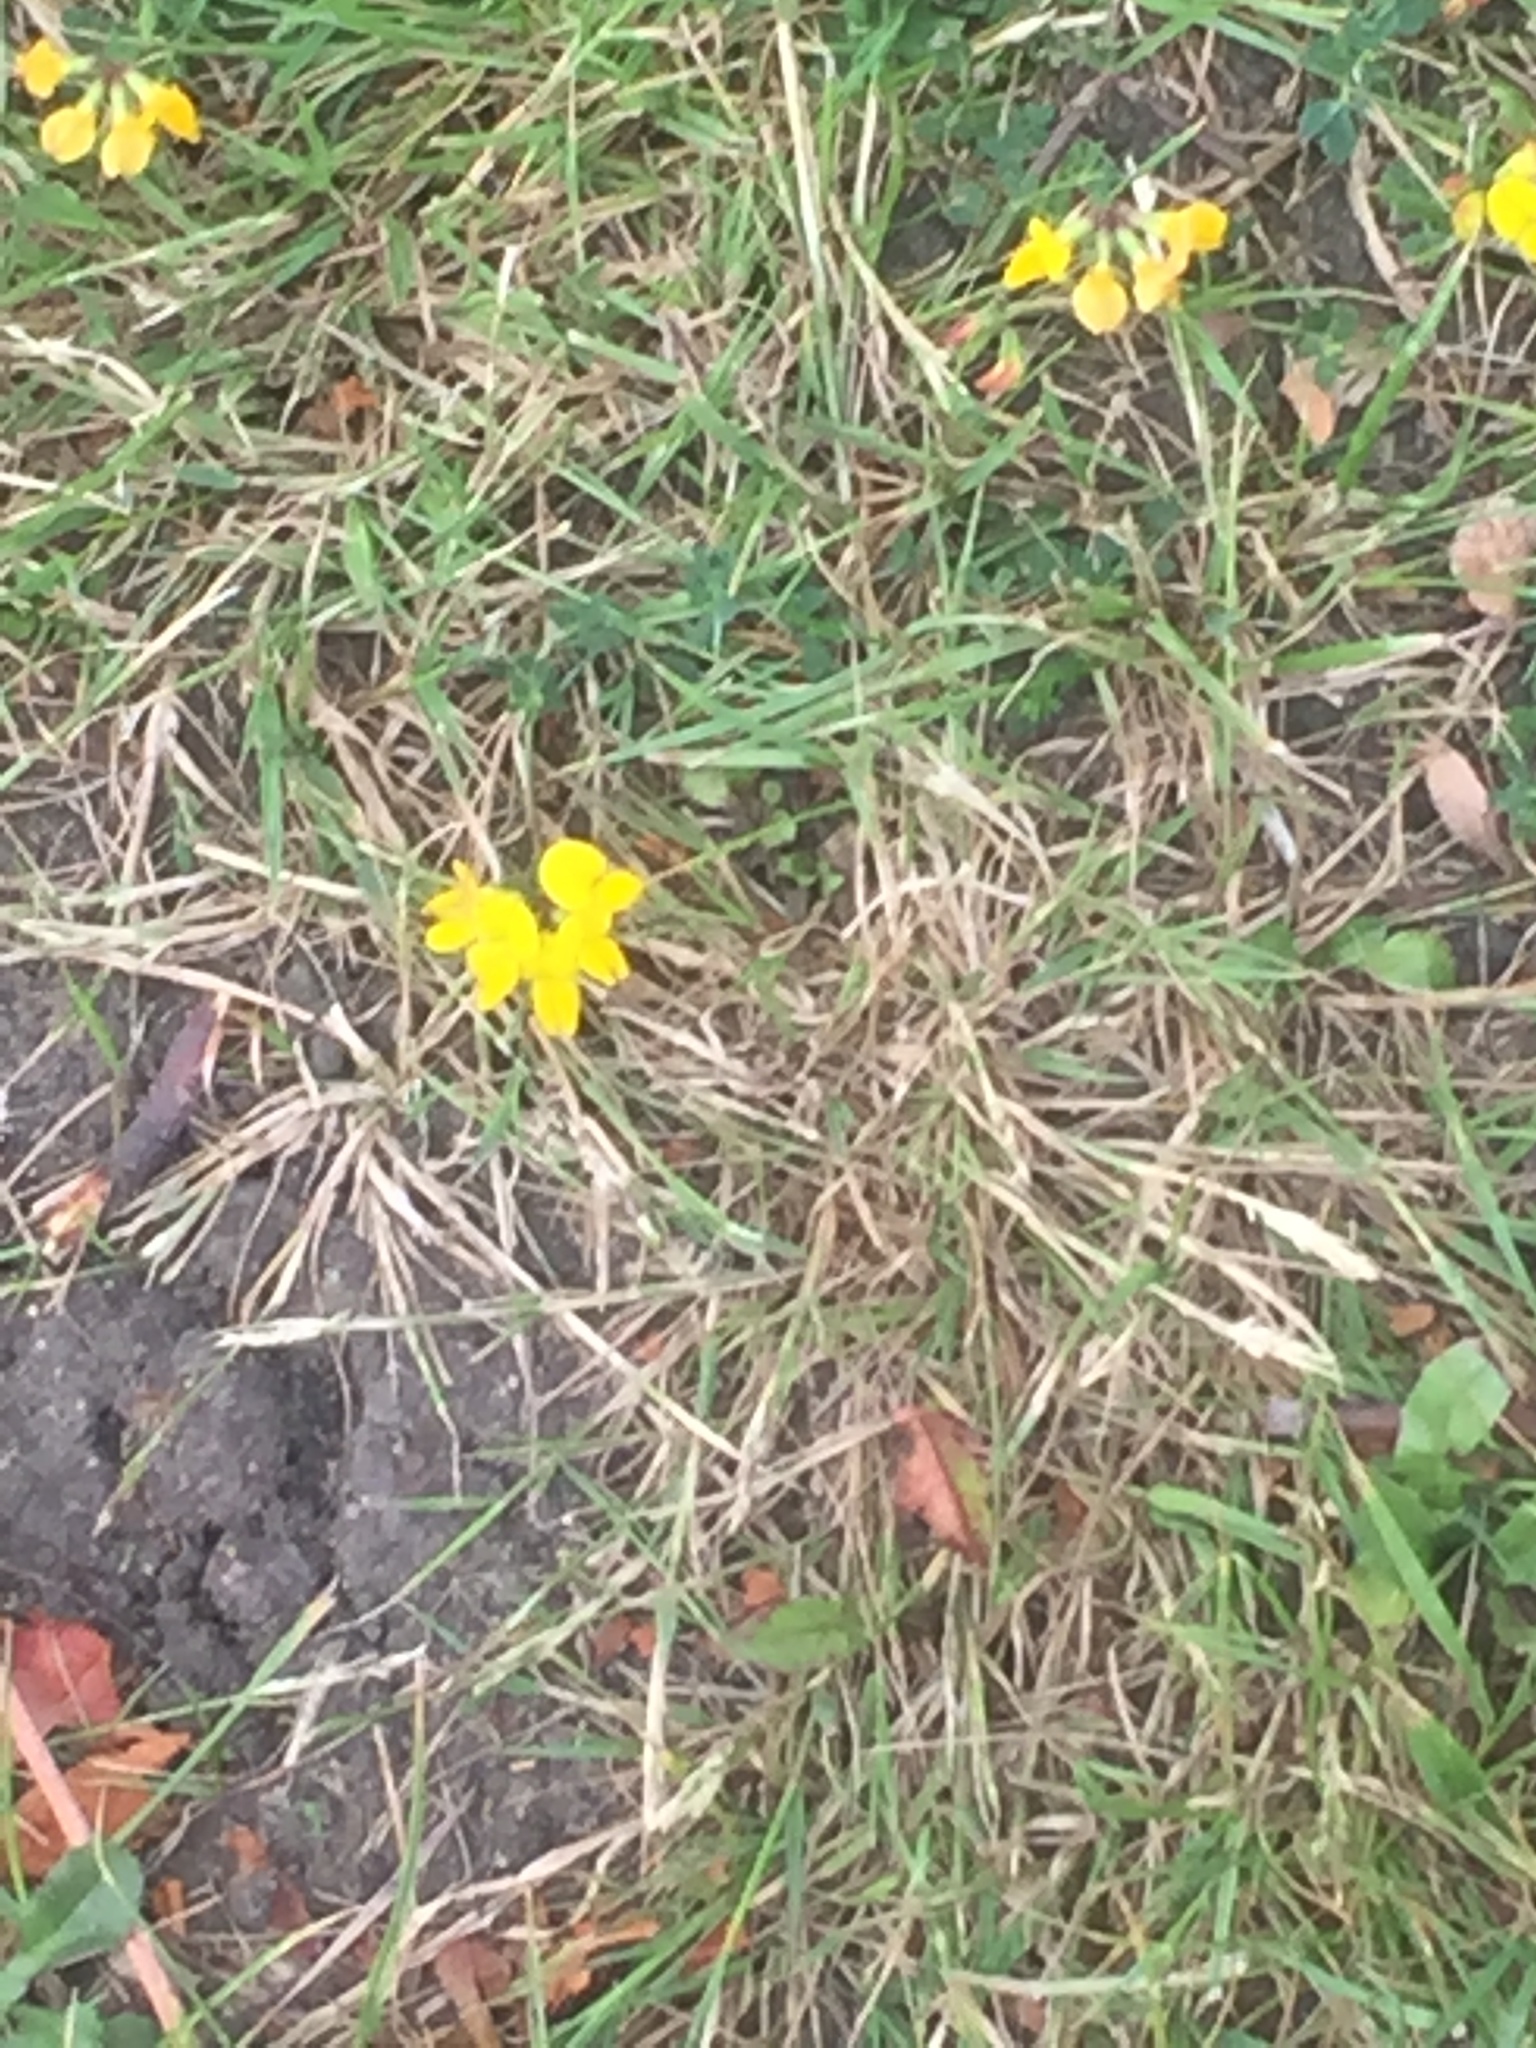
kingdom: Plantae
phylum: Tracheophyta
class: Magnoliopsida
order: Fabales
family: Fabaceae
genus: Lotus
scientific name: Lotus corniculatus
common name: Common bird's-foot-trefoil
